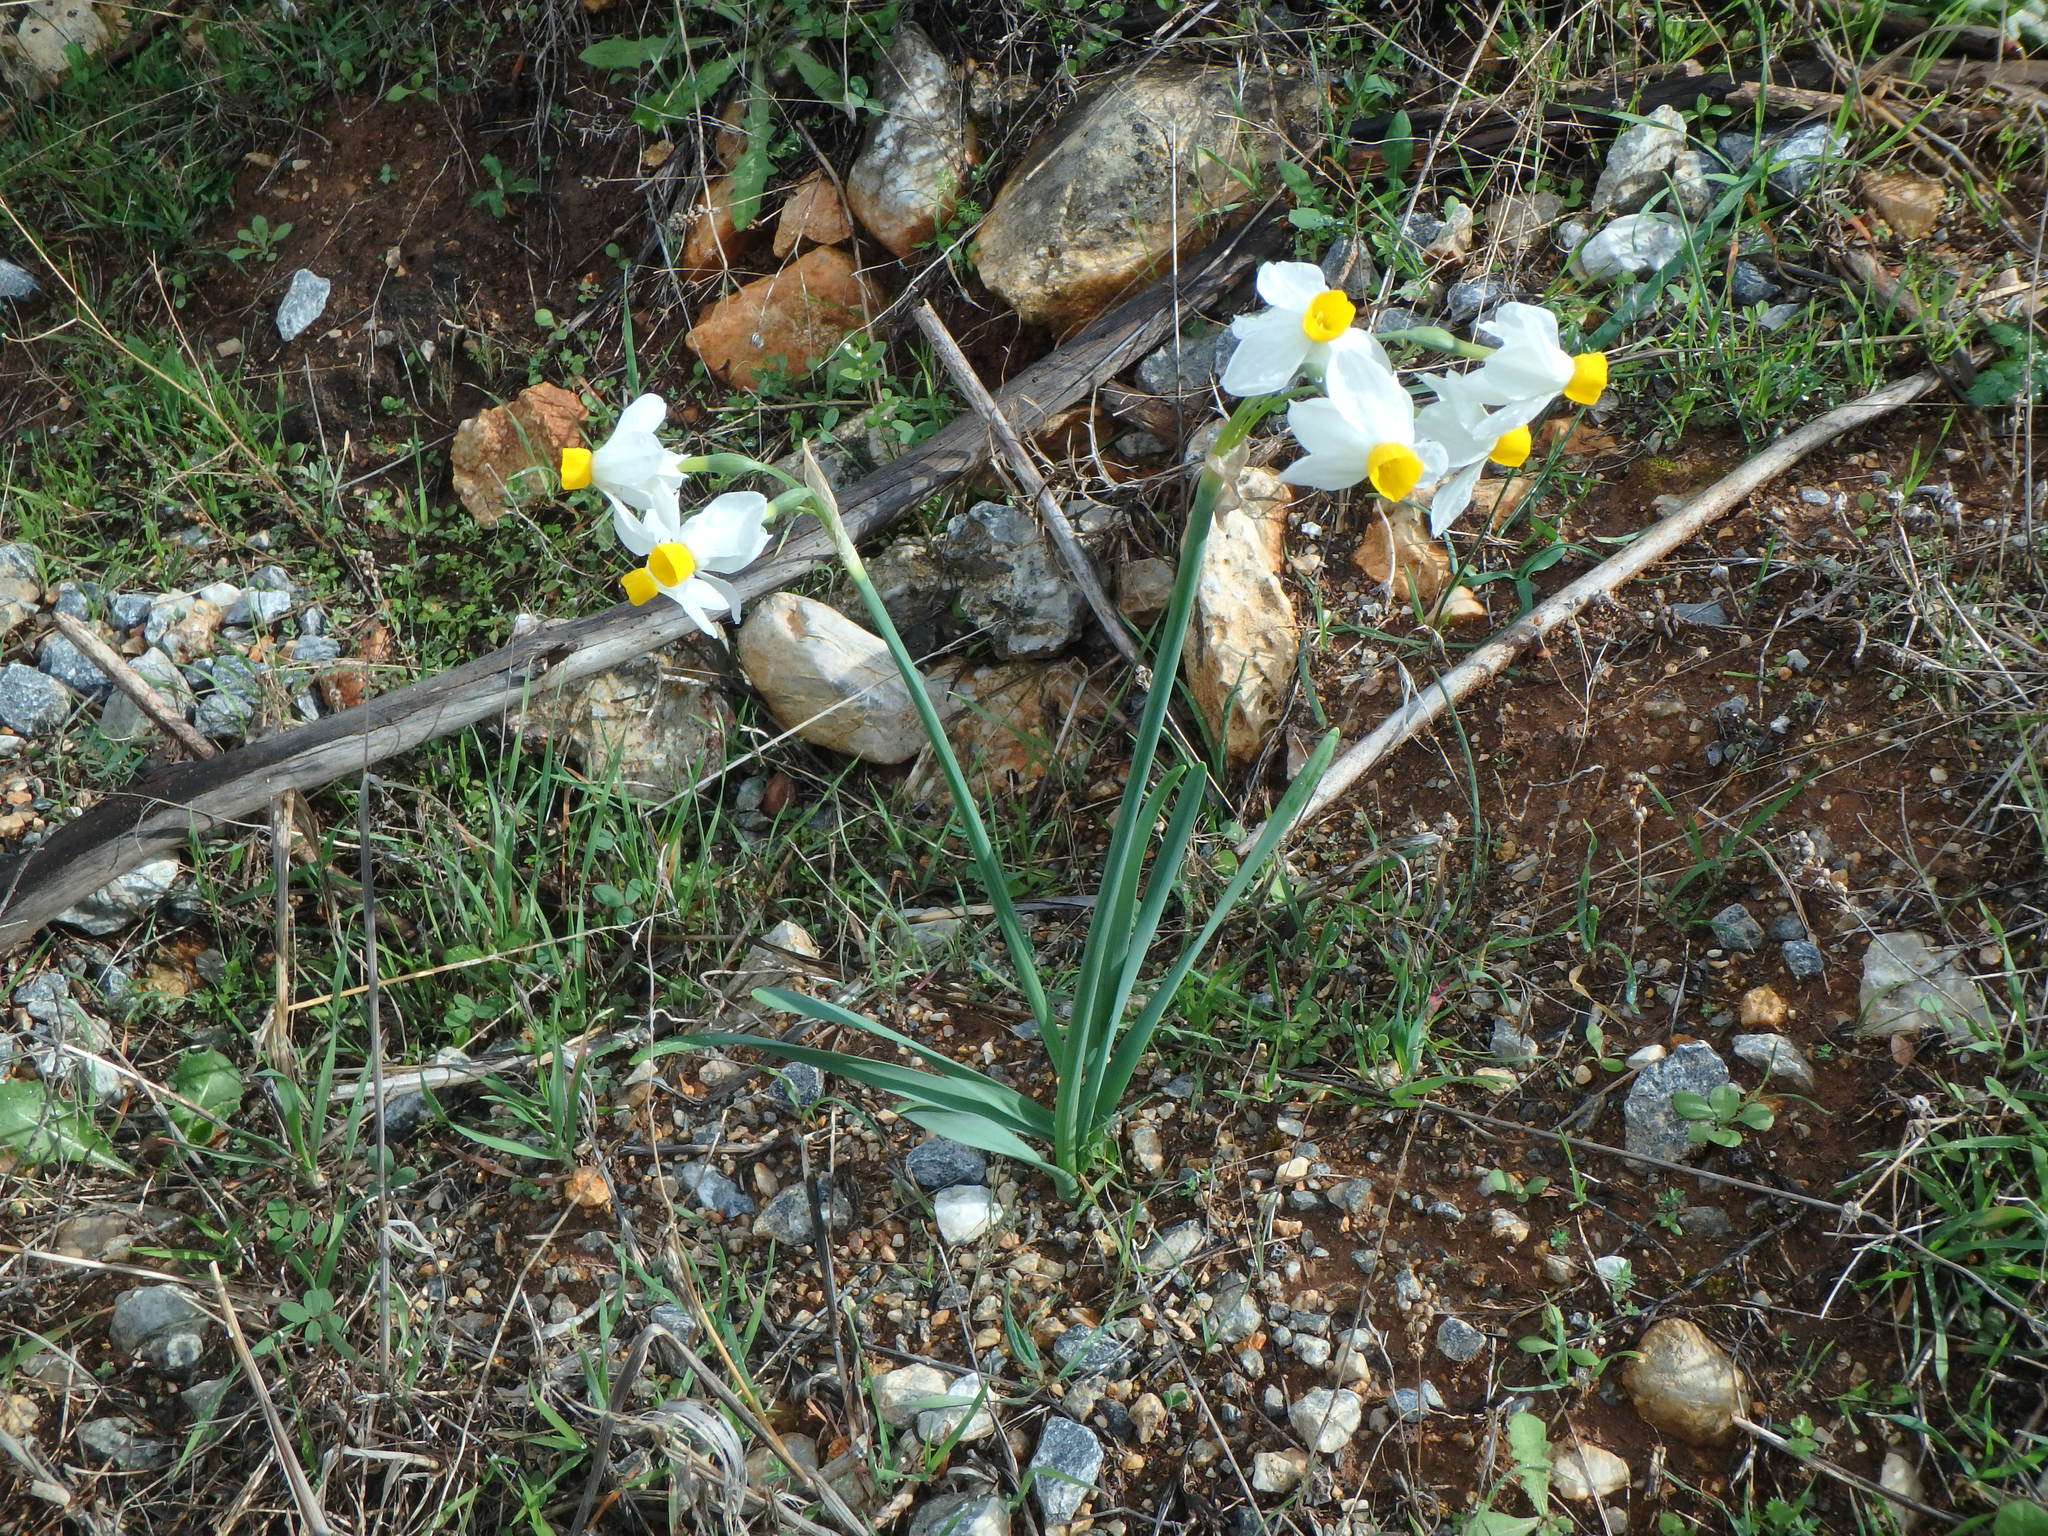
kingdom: Plantae
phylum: Tracheophyta
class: Liliopsida
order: Asparagales
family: Amaryllidaceae
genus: Narcissus
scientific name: Narcissus tazetta
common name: Bunch-flowered daffodil
